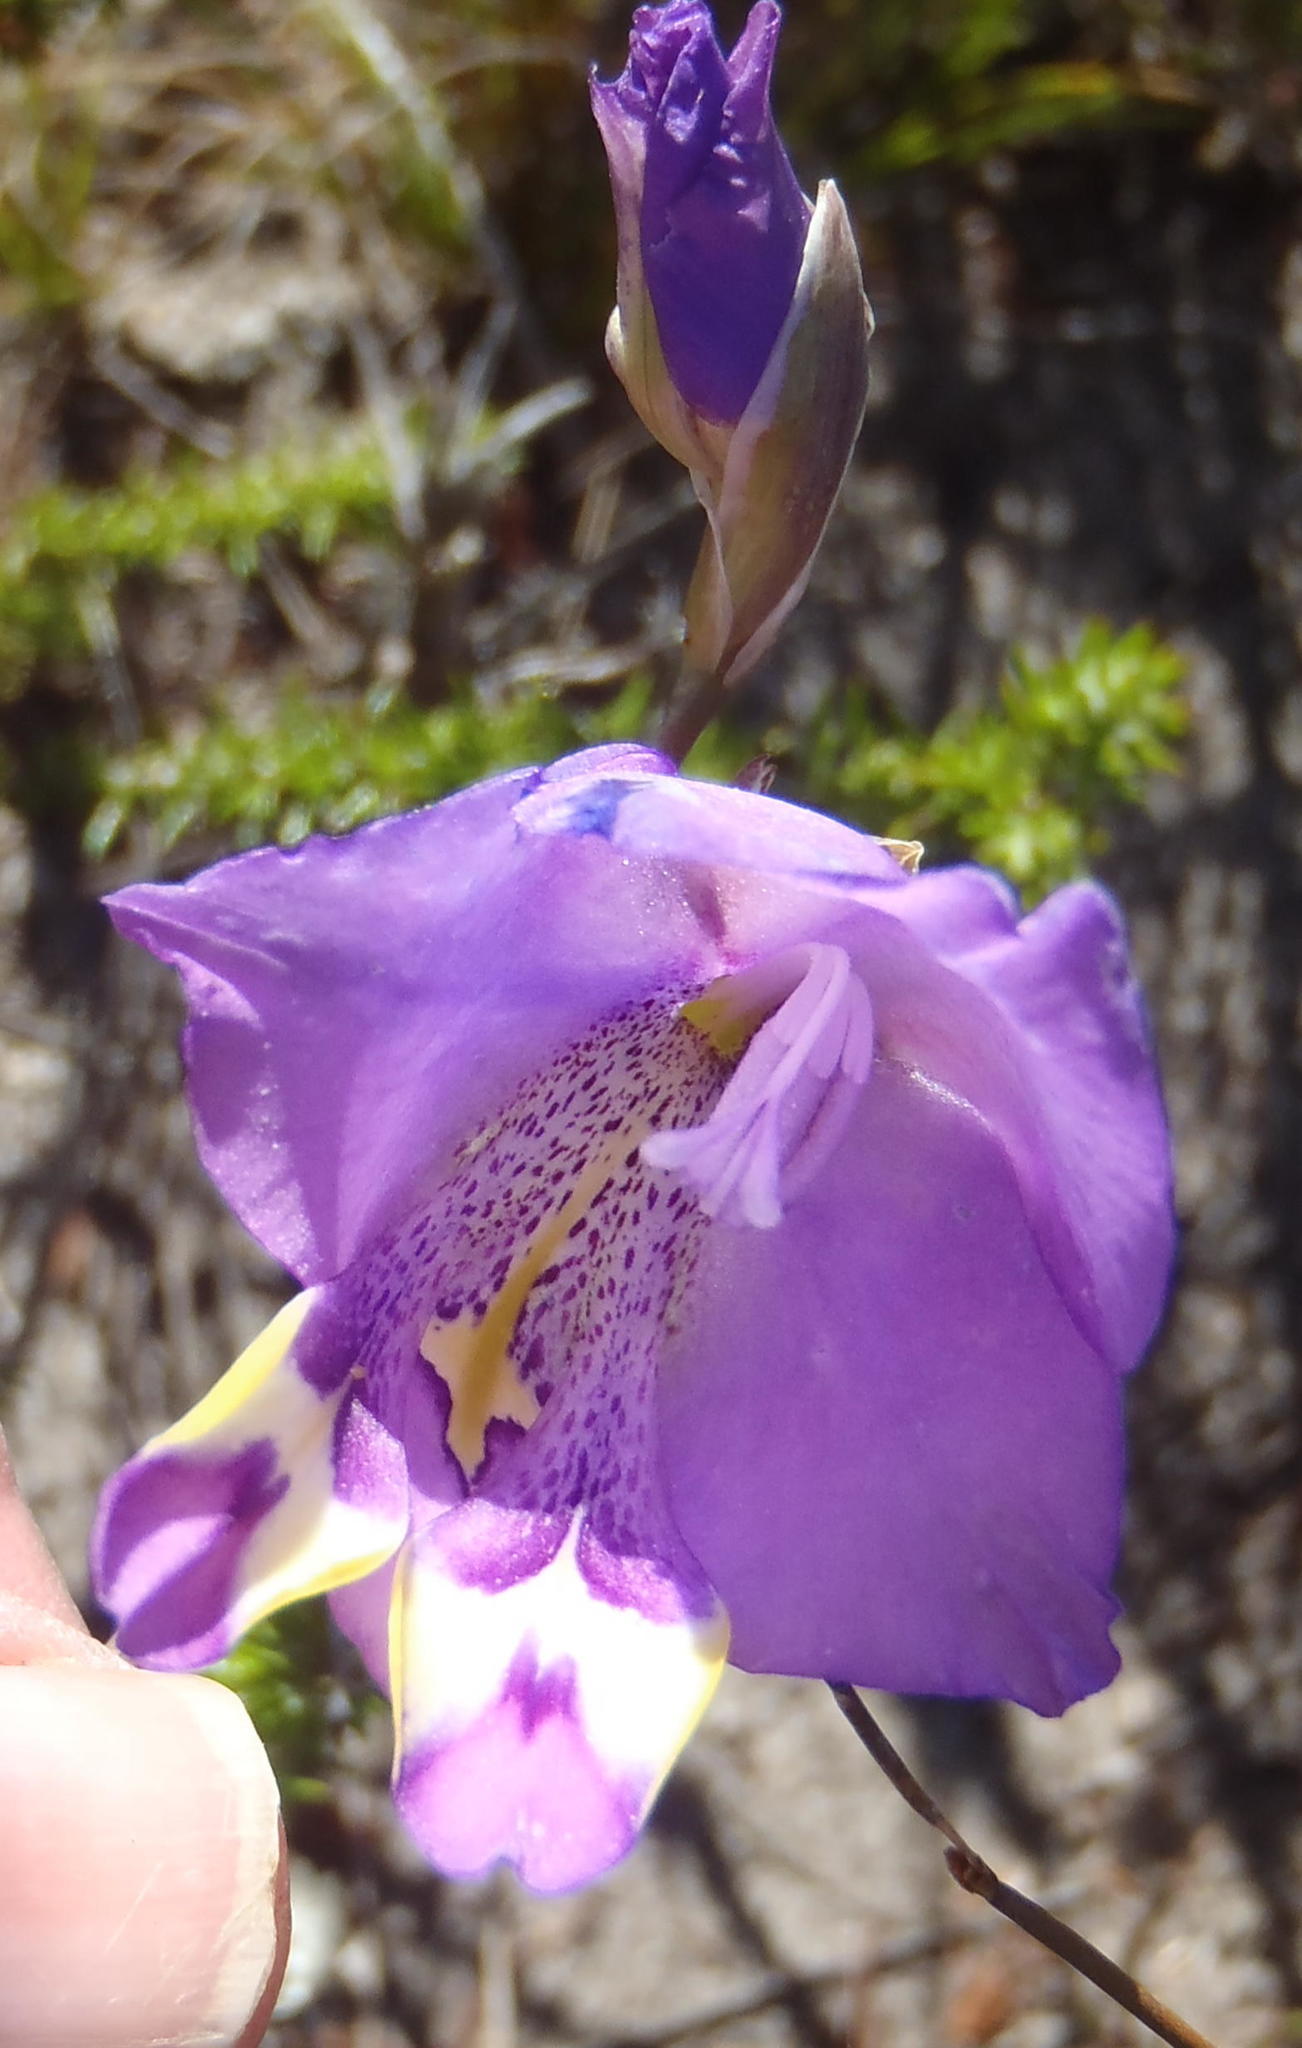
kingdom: Plantae
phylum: Tracheophyta
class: Liliopsida
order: Asparagales
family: Iridaceae
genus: Gladiolus
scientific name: Gladiolus patersoniae
